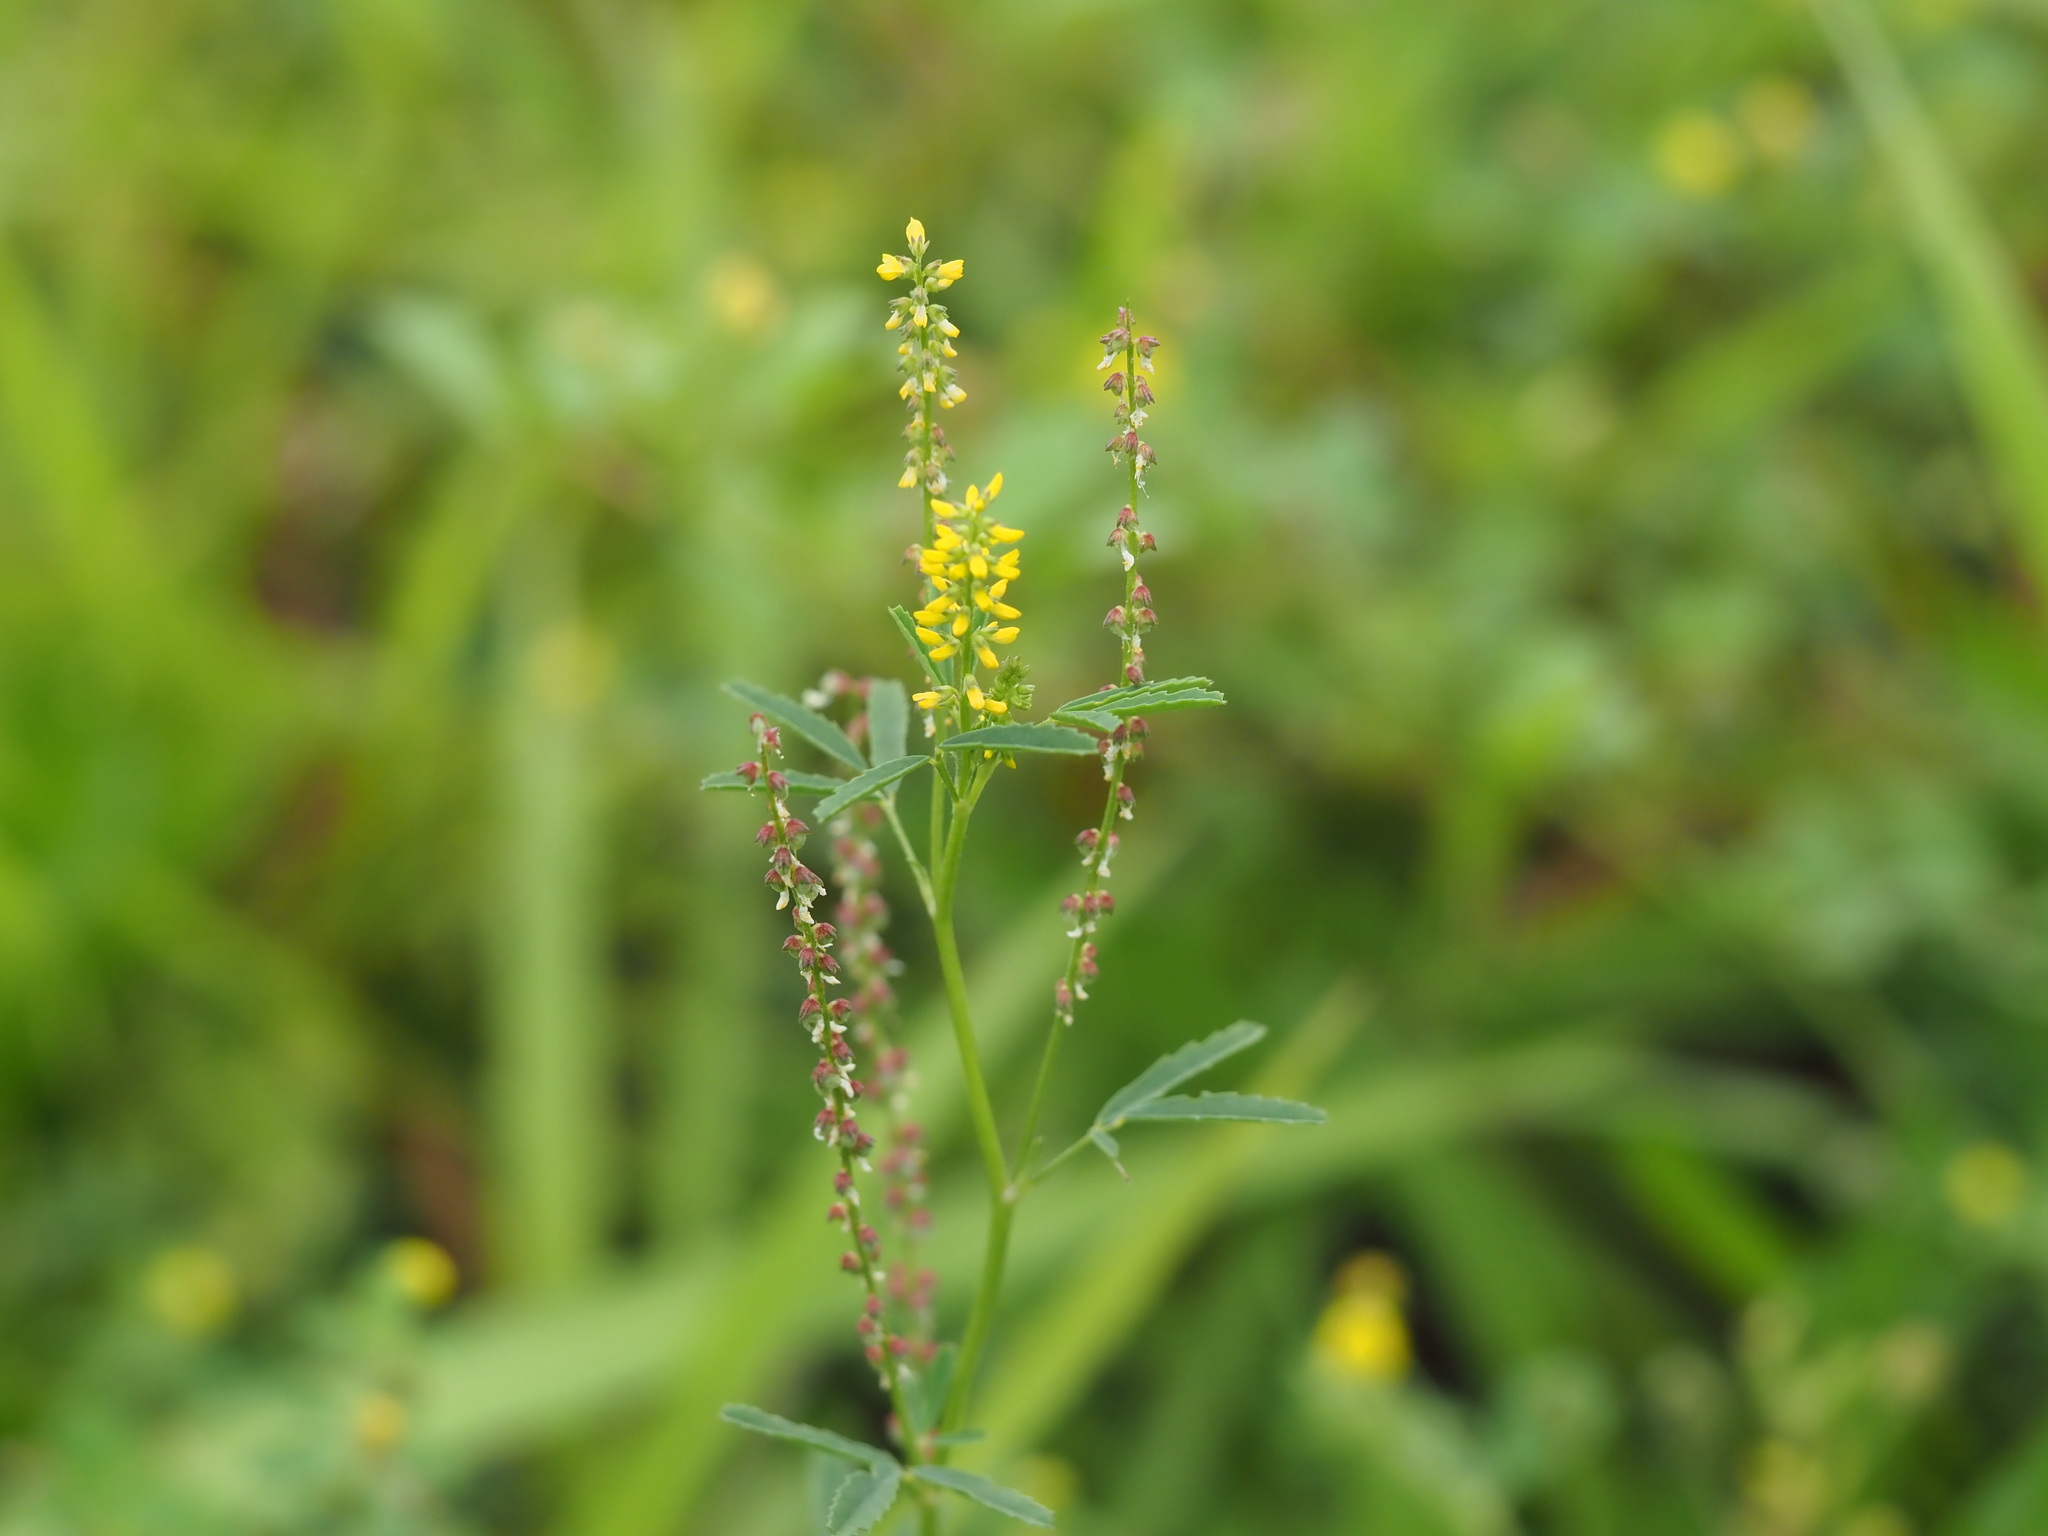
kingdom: Plantae
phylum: Tracheophyta
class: Magnoliopsida
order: Fabales
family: Fabaceae
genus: Melilotus
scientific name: Melilotus indicus
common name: Small melilot
